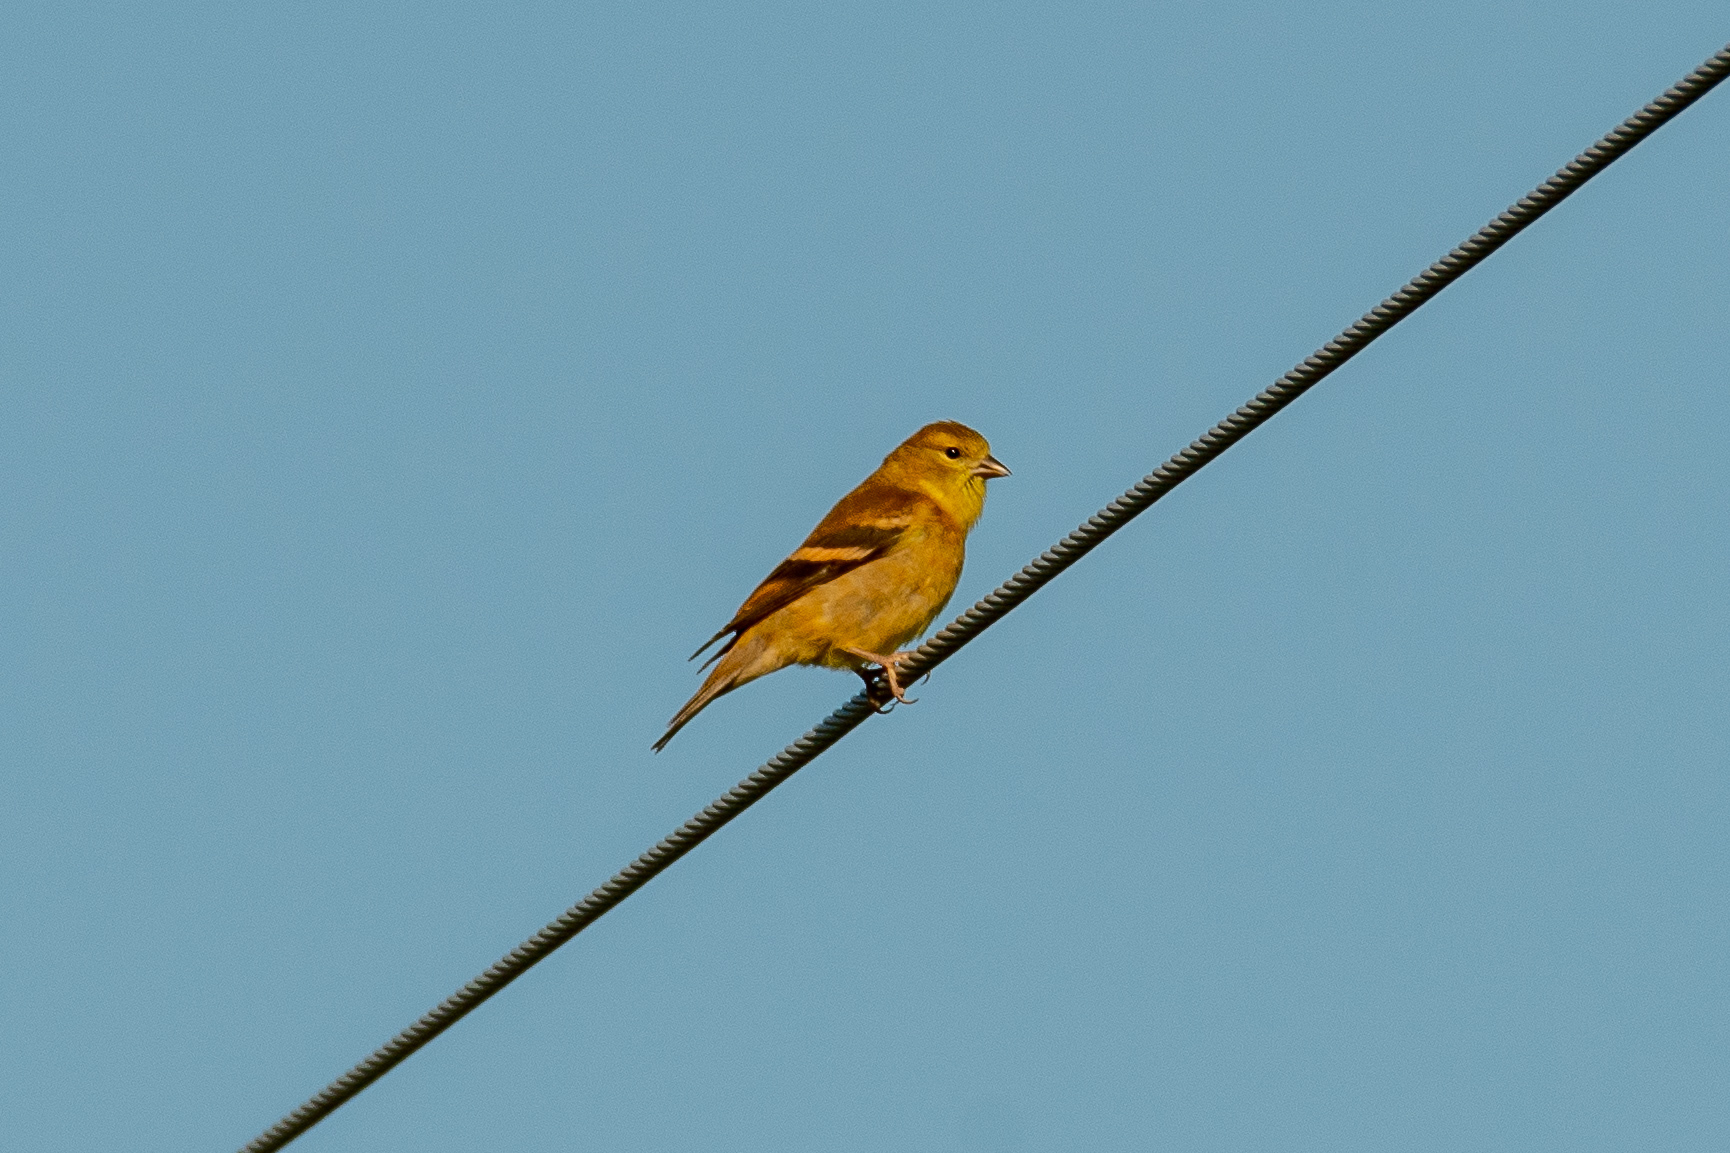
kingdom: Animalia
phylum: Chordata
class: Aves
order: Passeriformes
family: Fringillidae
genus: Spinus
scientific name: Spinus tristis
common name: American goldfinch
